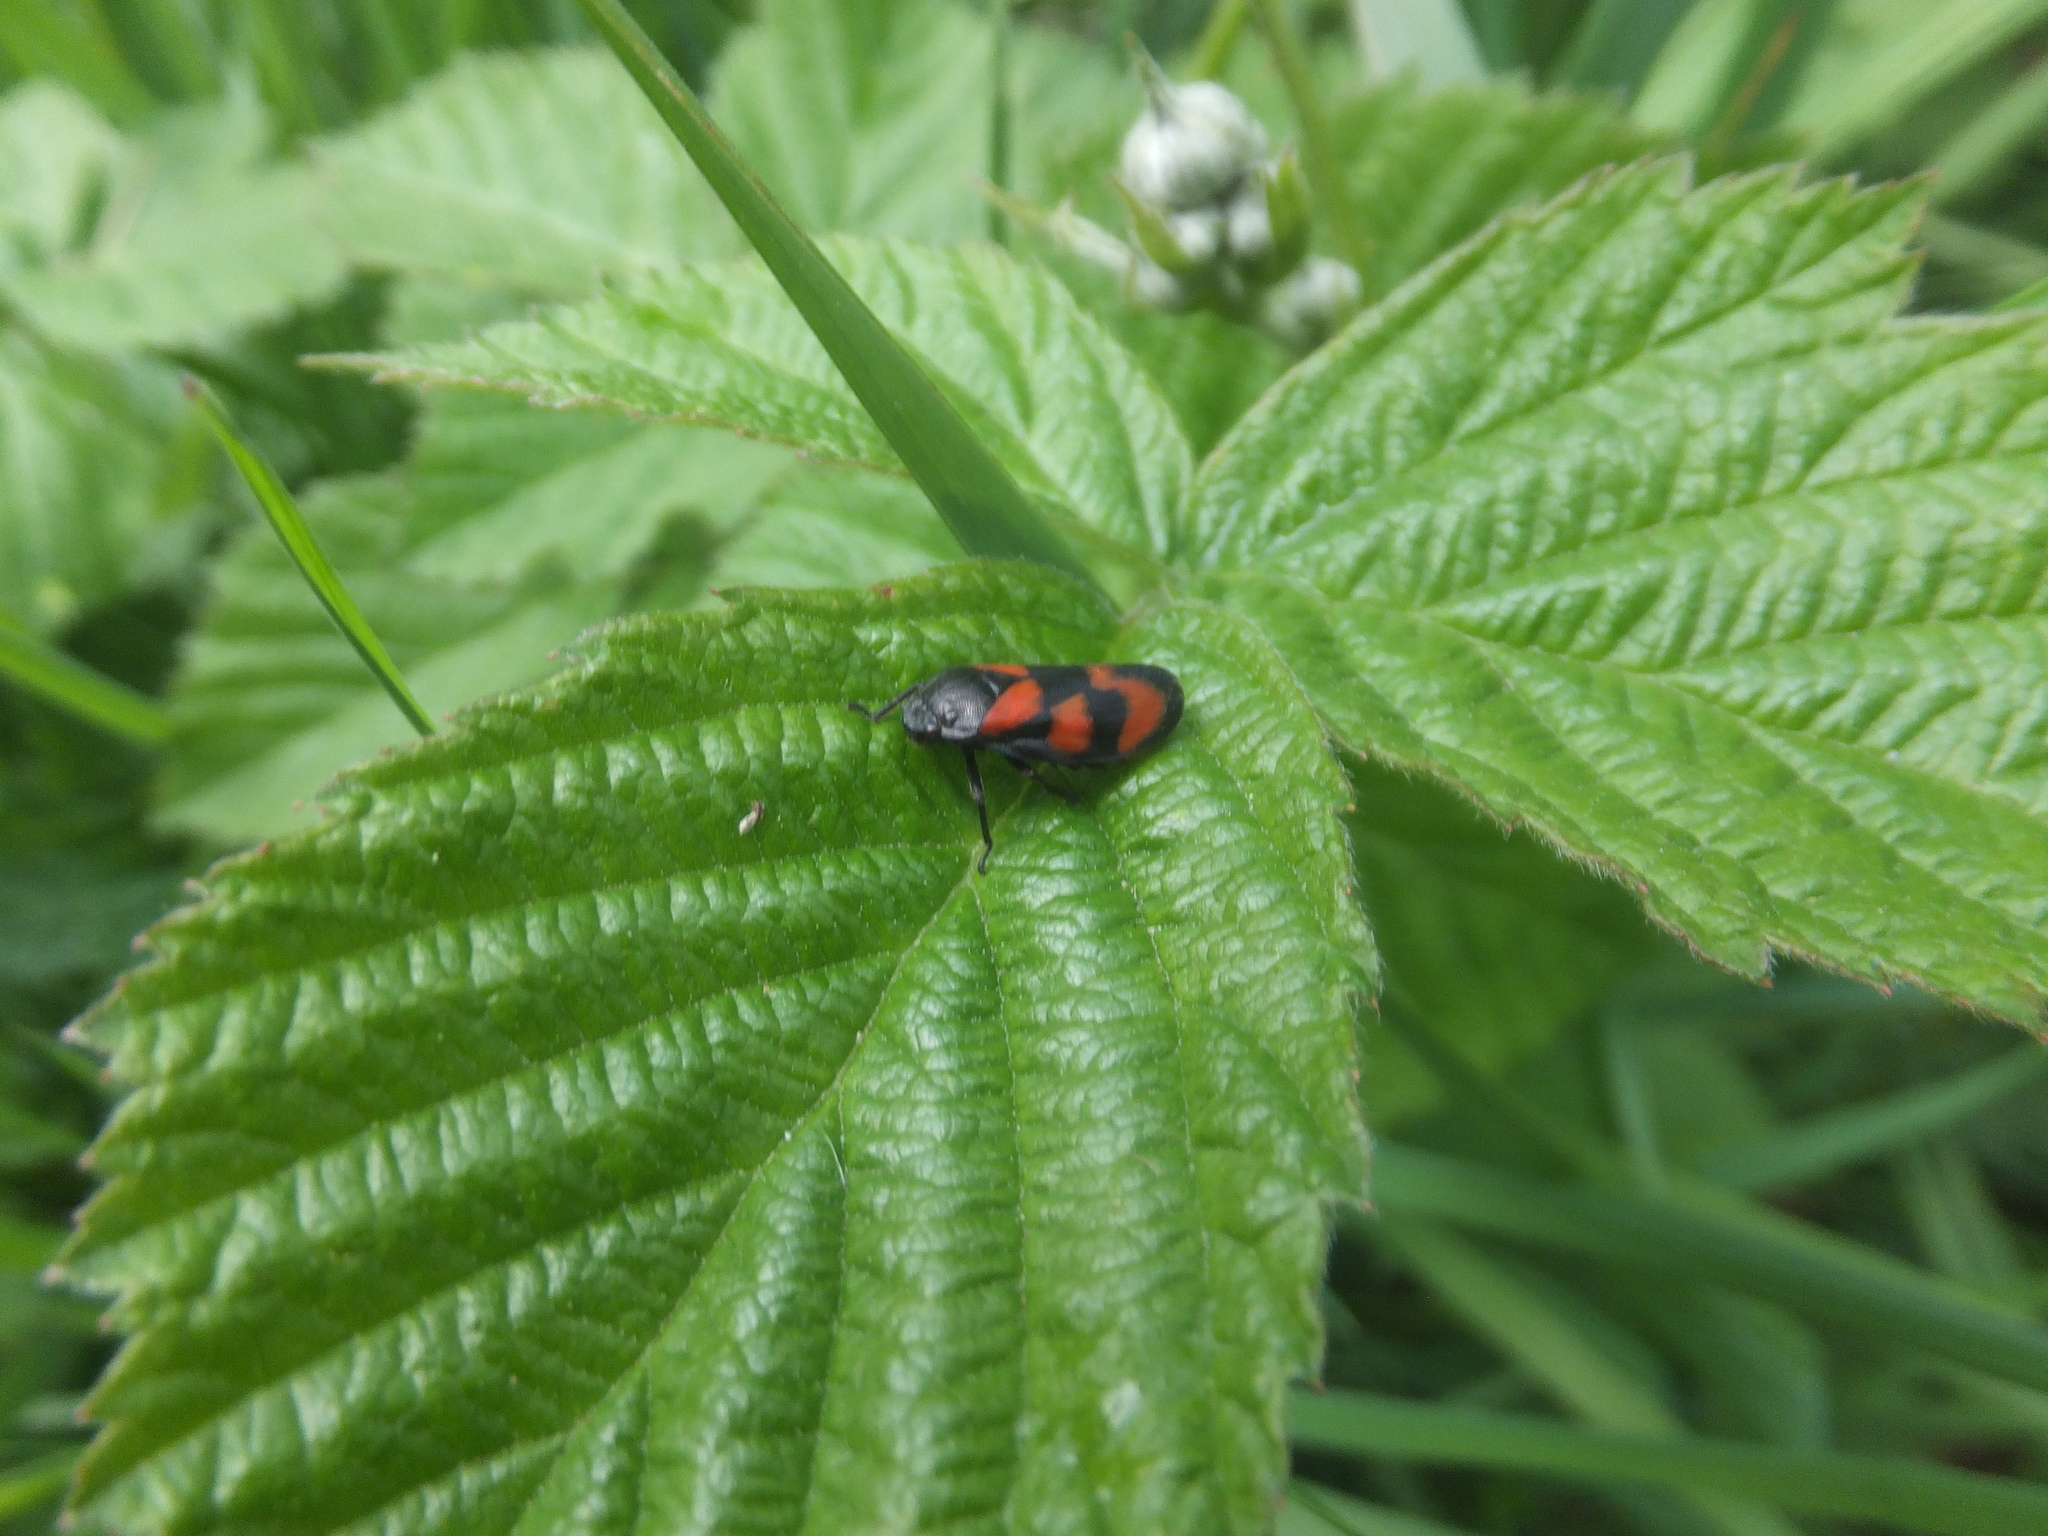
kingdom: Animalia
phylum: Arthropoda
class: Insecta
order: Hemiptera
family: Cercopidae
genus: Cercopis
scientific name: Cercopis vulnerata
